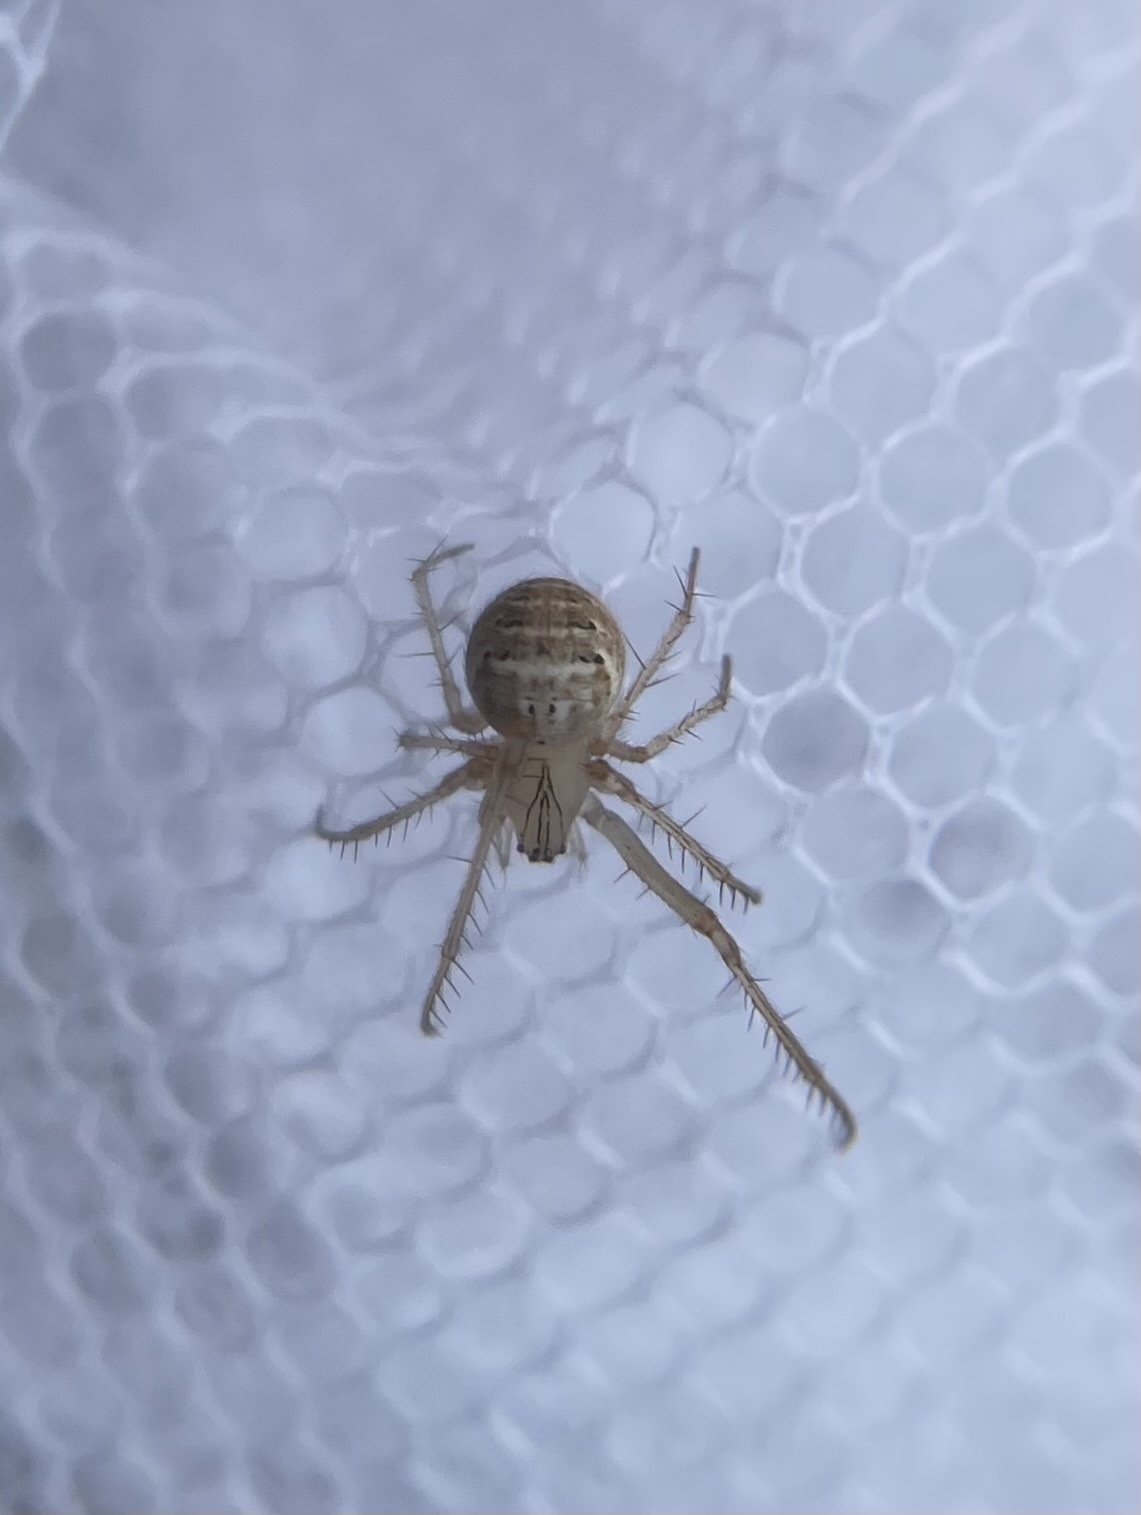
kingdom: Animalia
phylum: Arthropoda
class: Arachnida
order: Araneae
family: Mimetidae
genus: Mimetus
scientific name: Mimetus epeiroides
